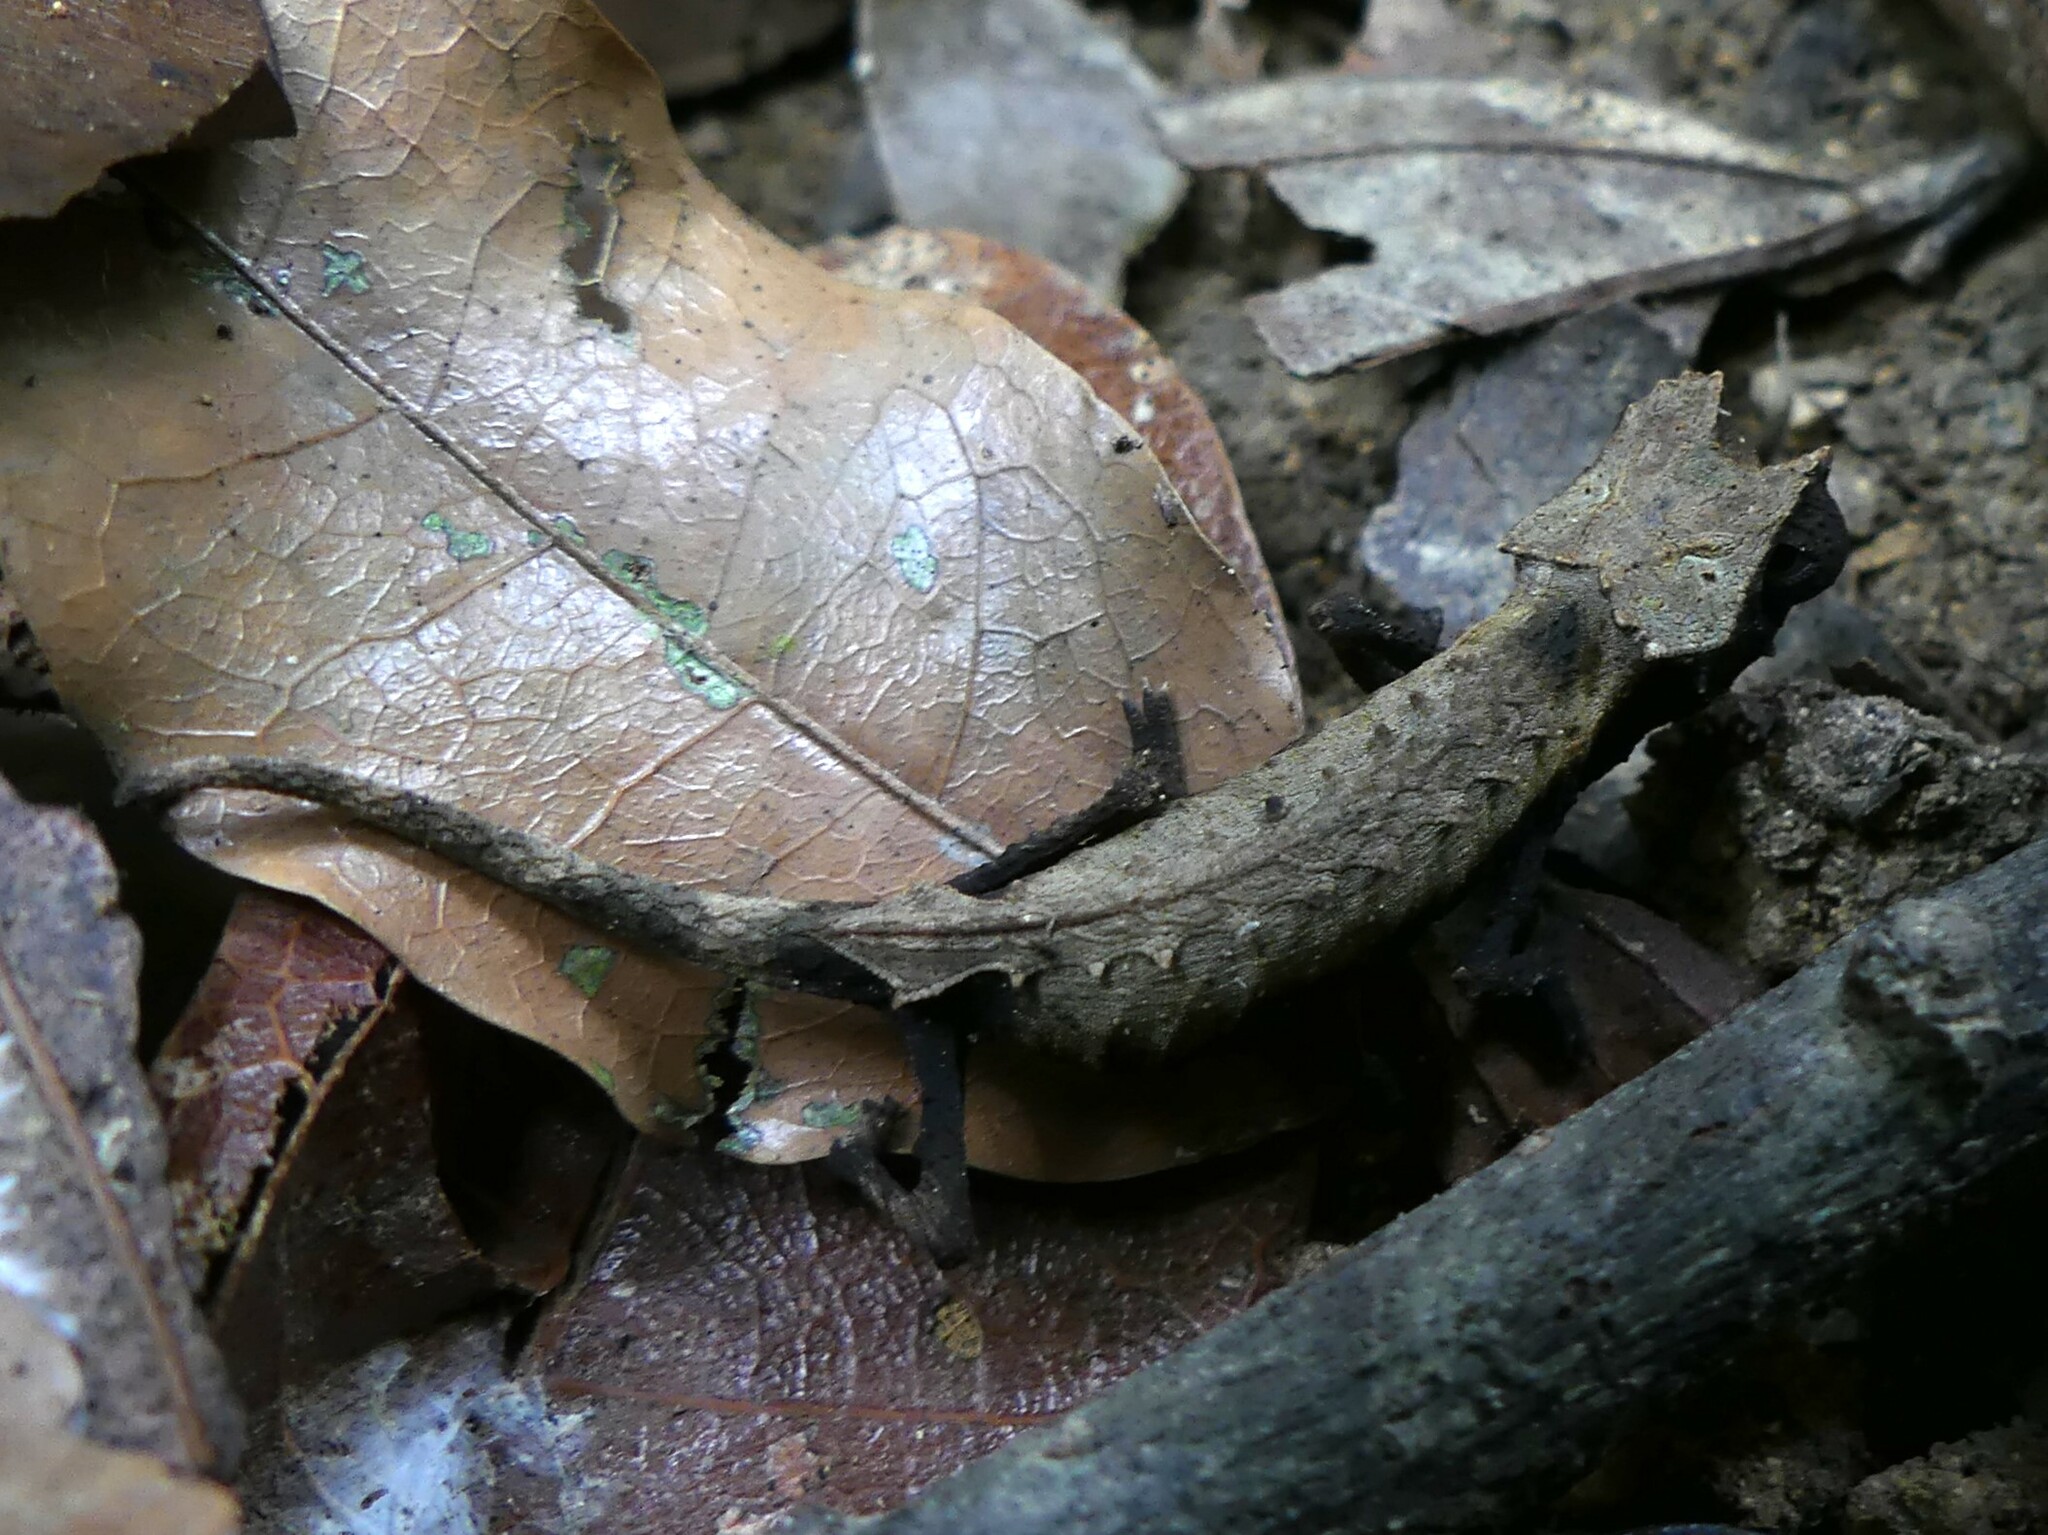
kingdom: Animalia
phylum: Chordata
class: Squamata
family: Chamaeleonidae
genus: Brookesia
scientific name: Brookesia stumpffi
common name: Plated leaf chameleon
